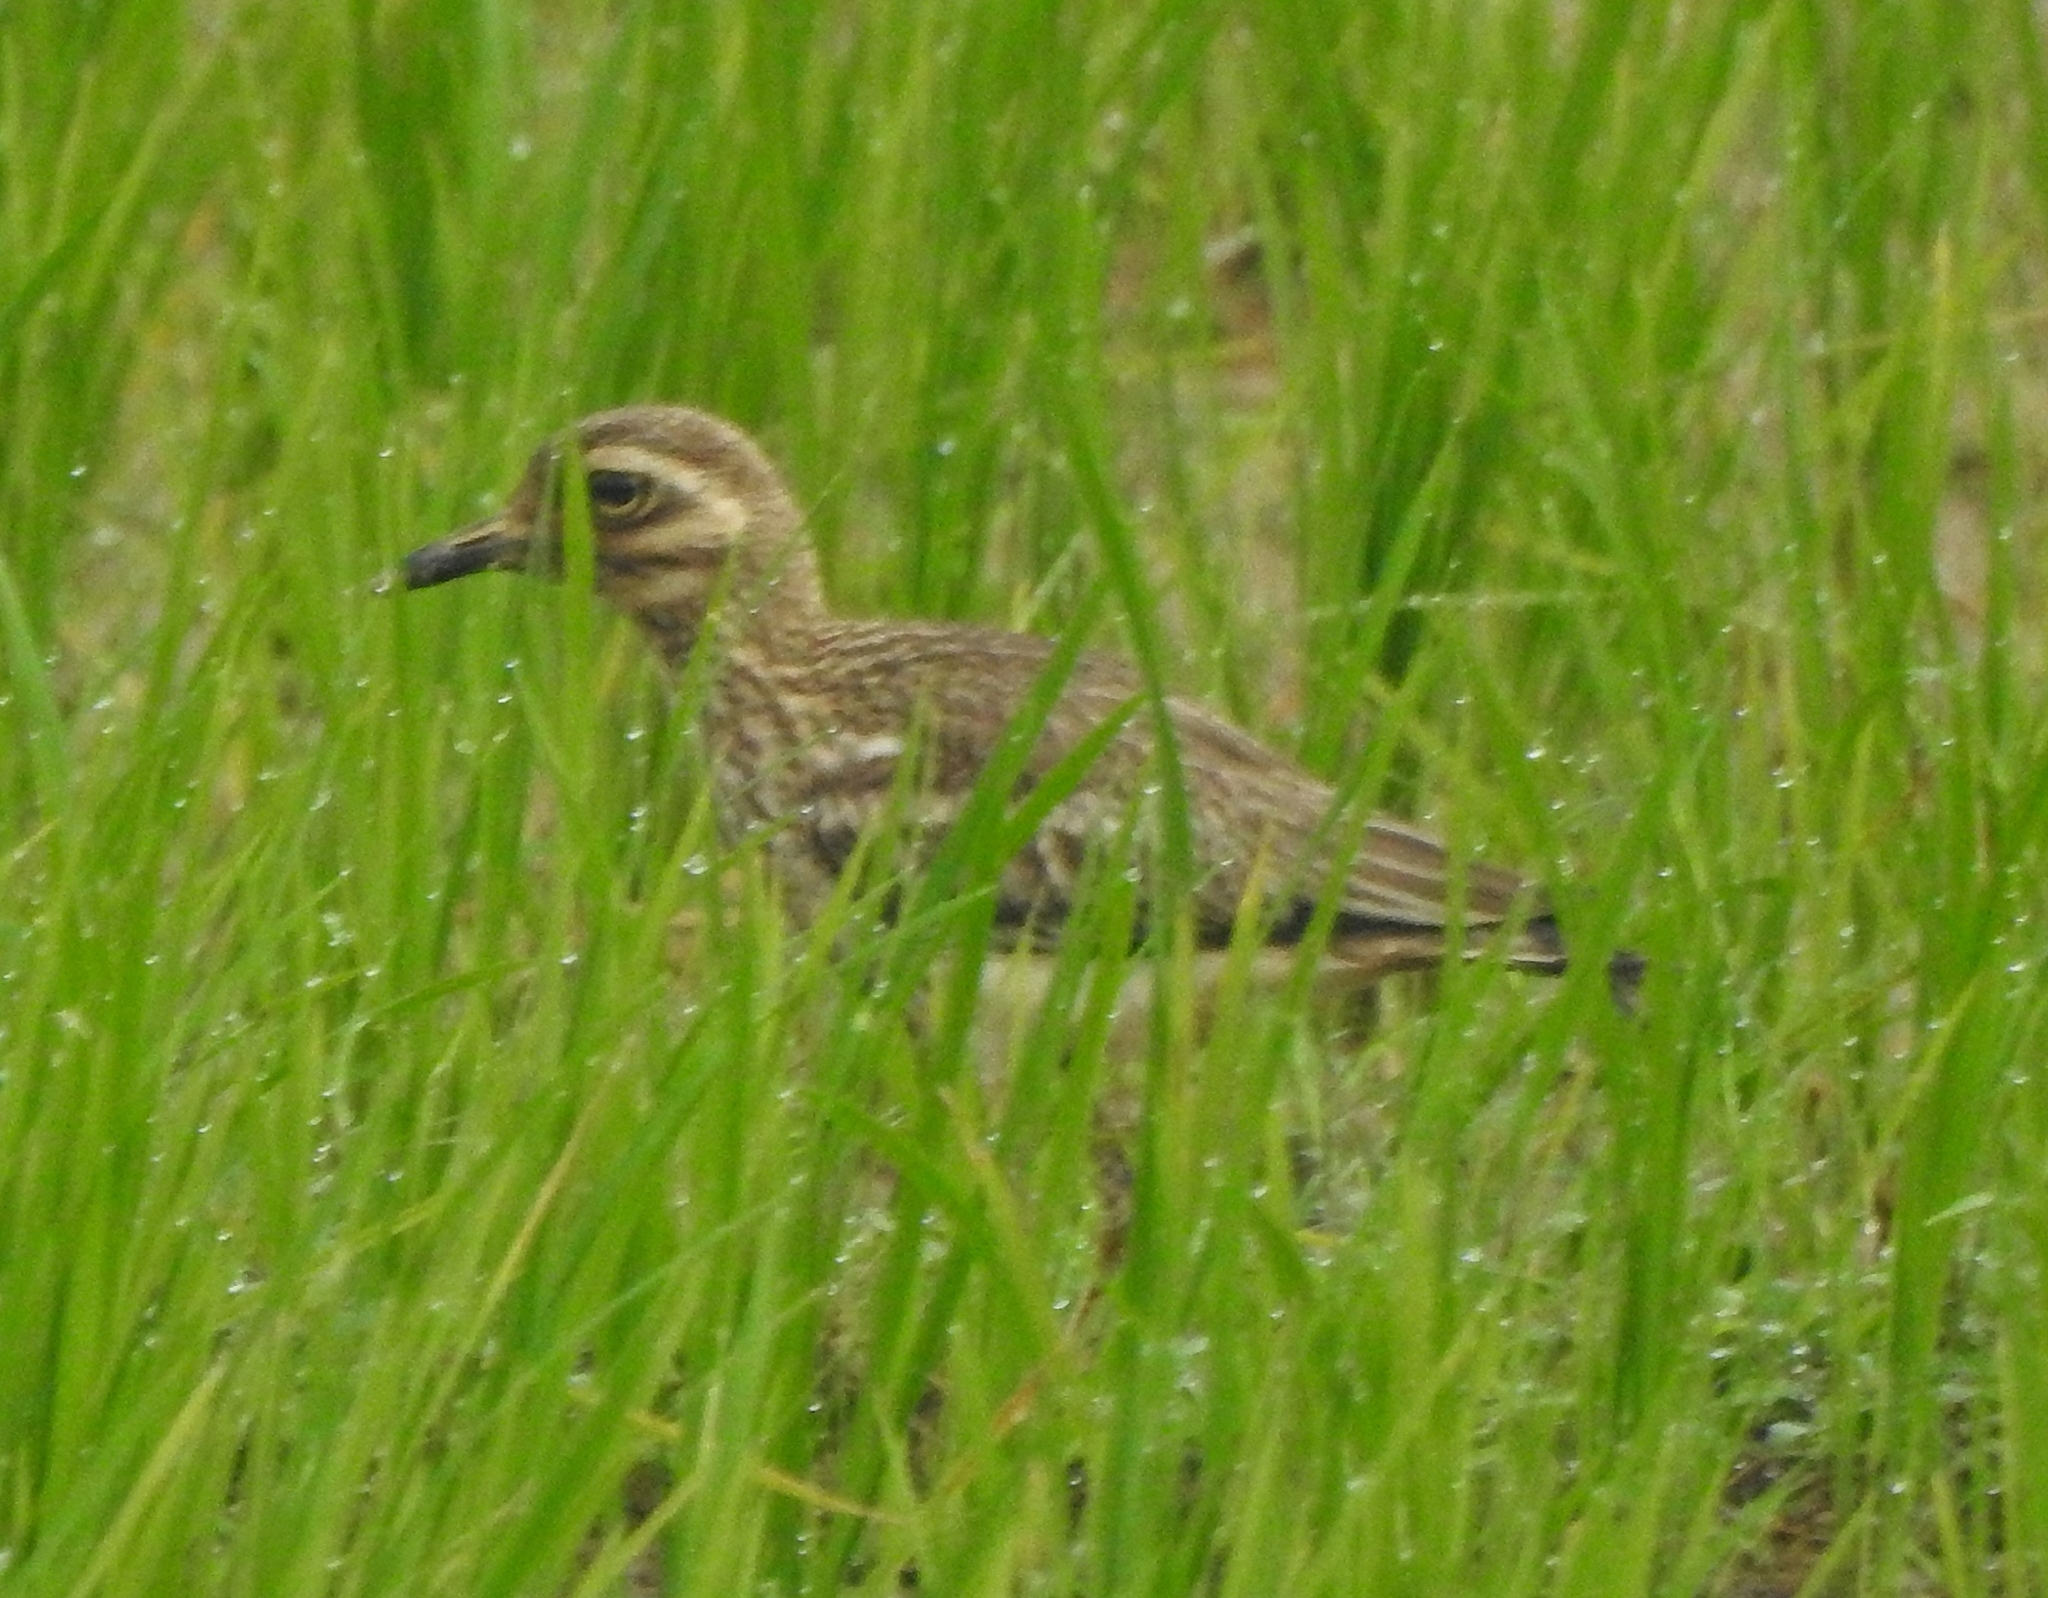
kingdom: Animalia
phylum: Chordata
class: Aves
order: Charadriiformes
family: Burhinidae
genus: Burhinus
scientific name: Burhinus indicus
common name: Indian thick-knee
